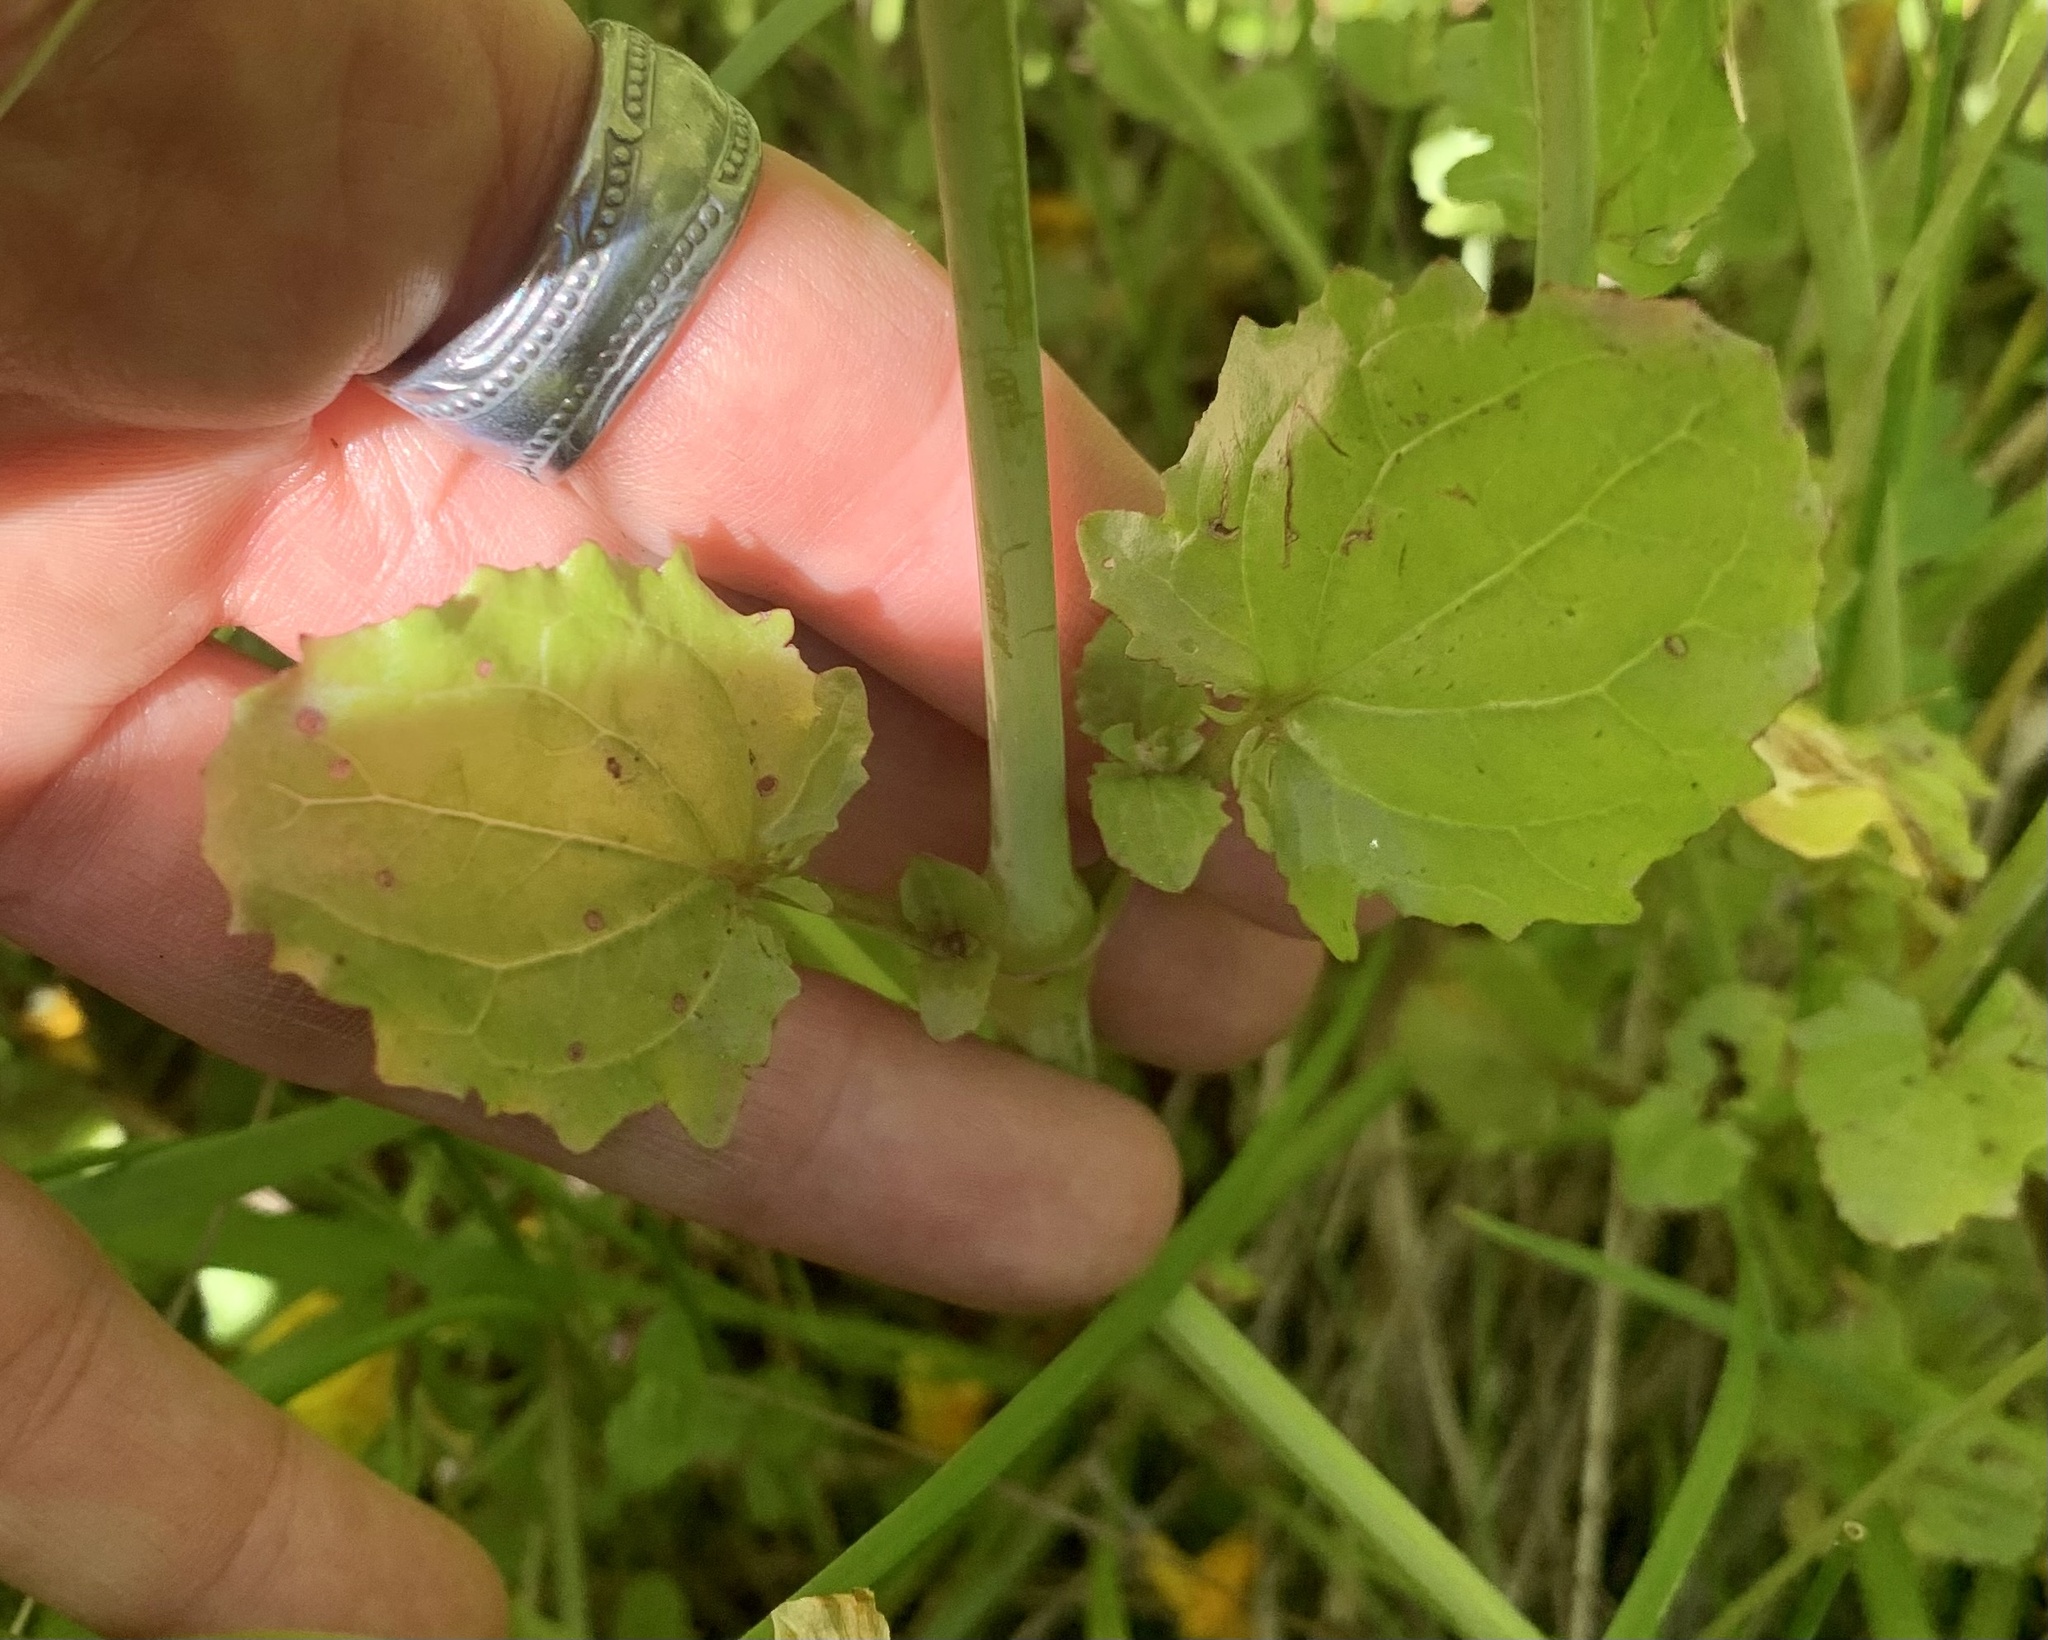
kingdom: Plantae
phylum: Tracheophyta
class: Magnoliopsida
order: Lamiales
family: Phrymaceae
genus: Erythranthe
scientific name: Erythranthe guttata
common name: Monkeyflower
